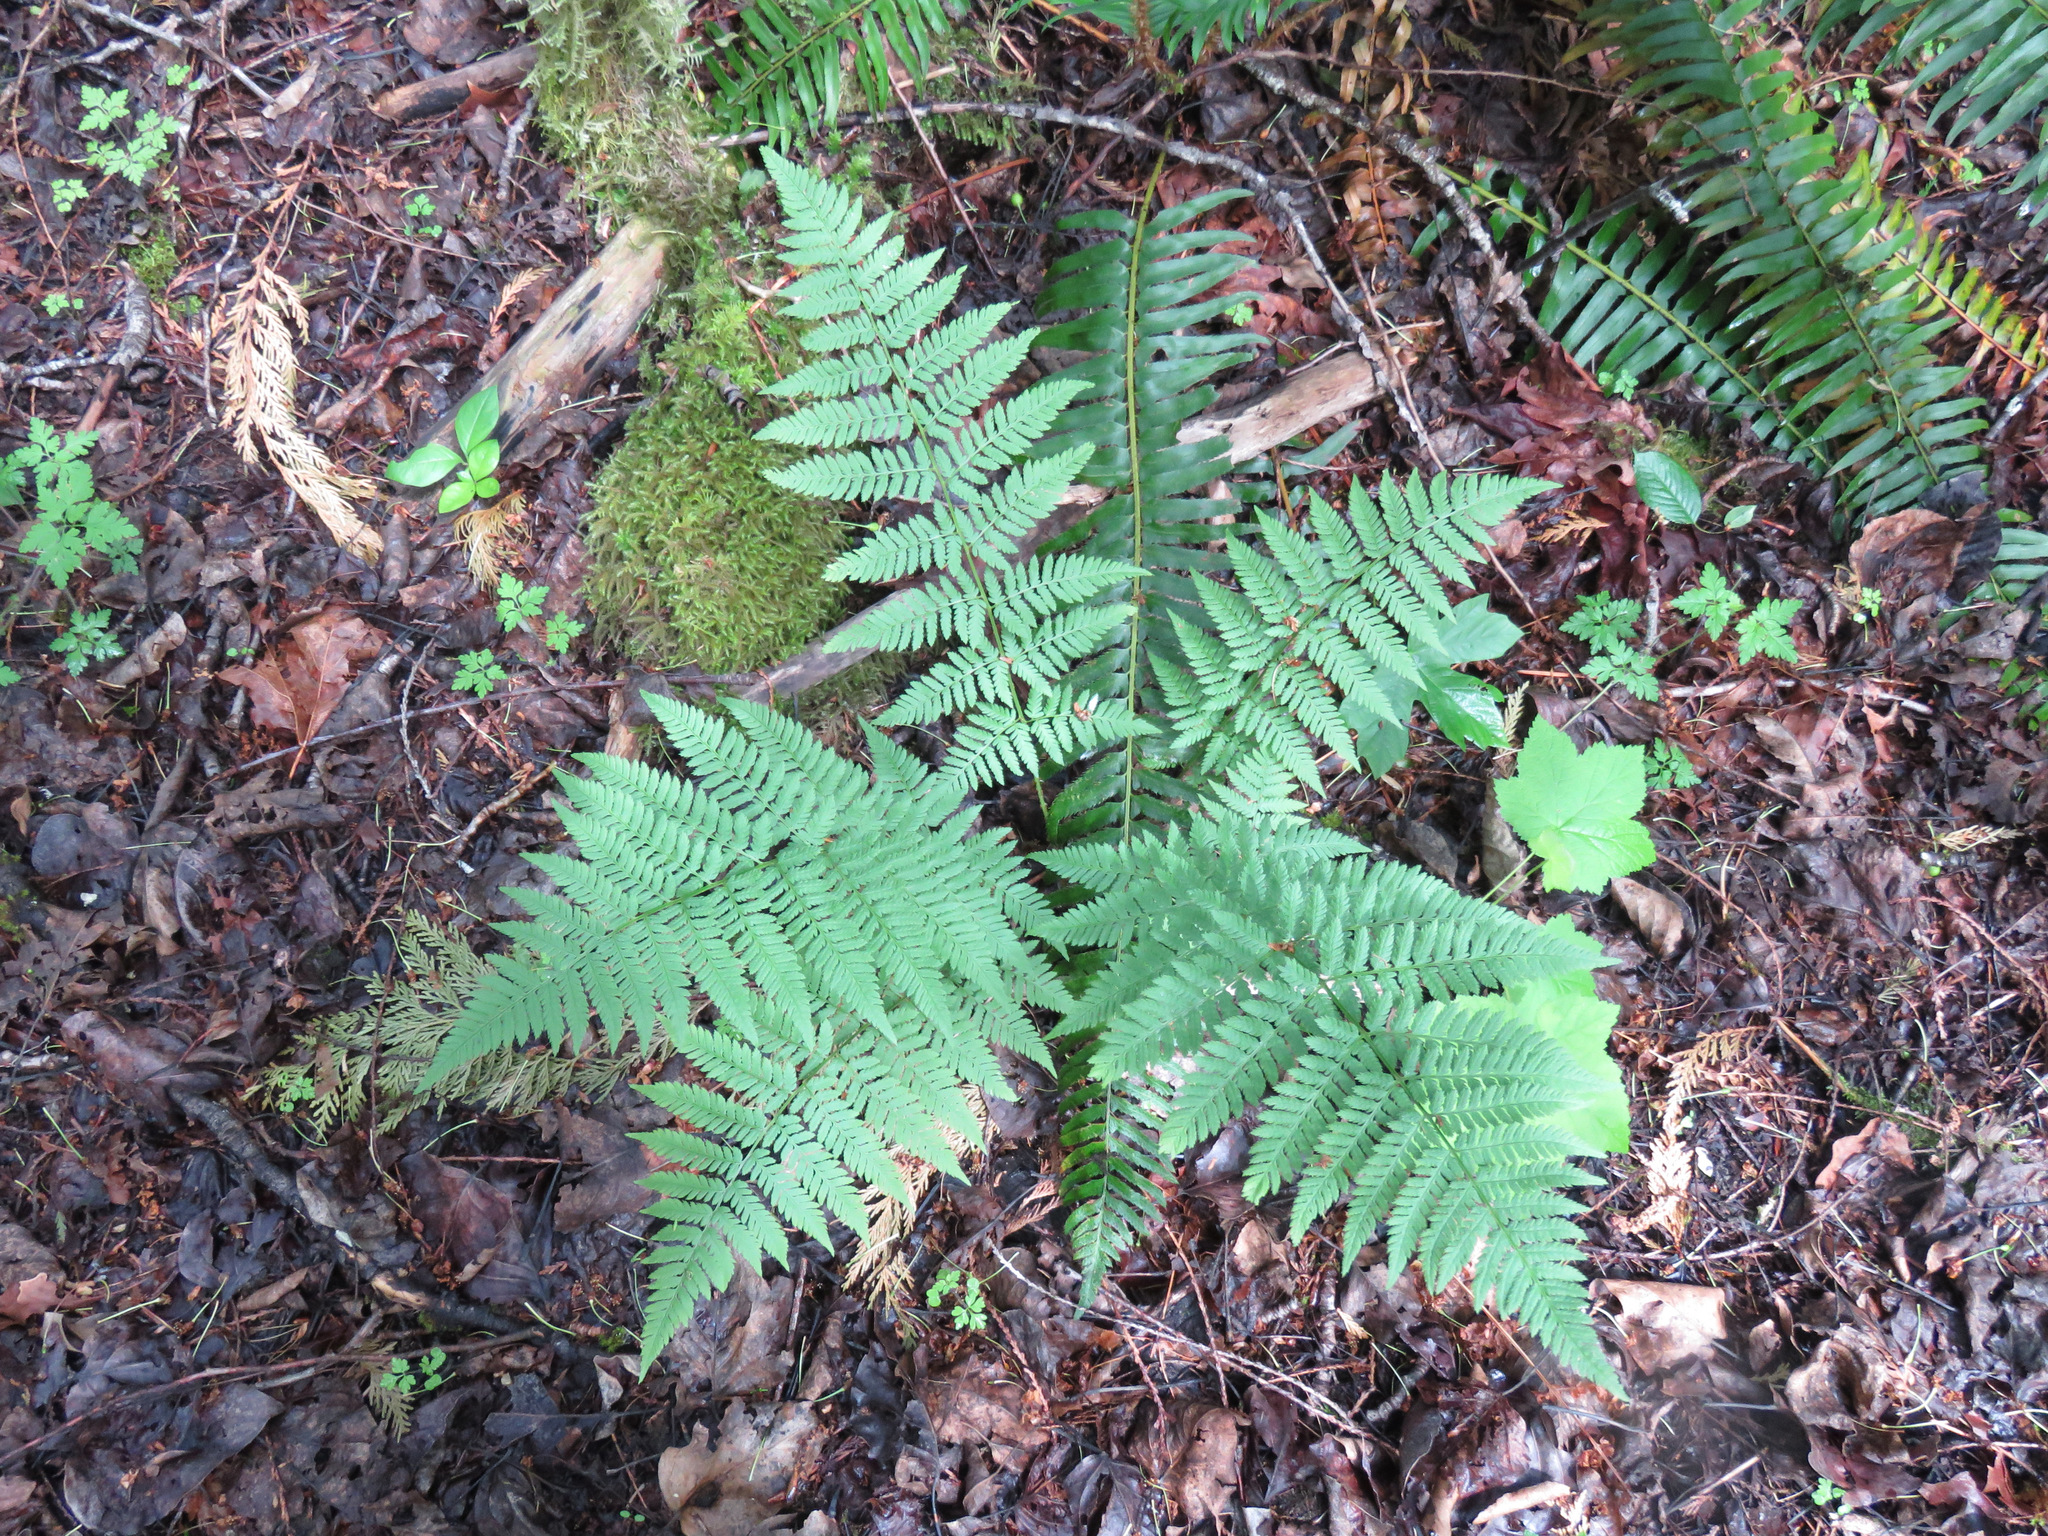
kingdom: Plantae
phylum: Tracheophyta
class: Polypodiopsida
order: Polypodiales
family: Dryopteridaceae
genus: Dryopteris
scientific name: Dryopteris carthusiana
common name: Narrow buckler-fern
